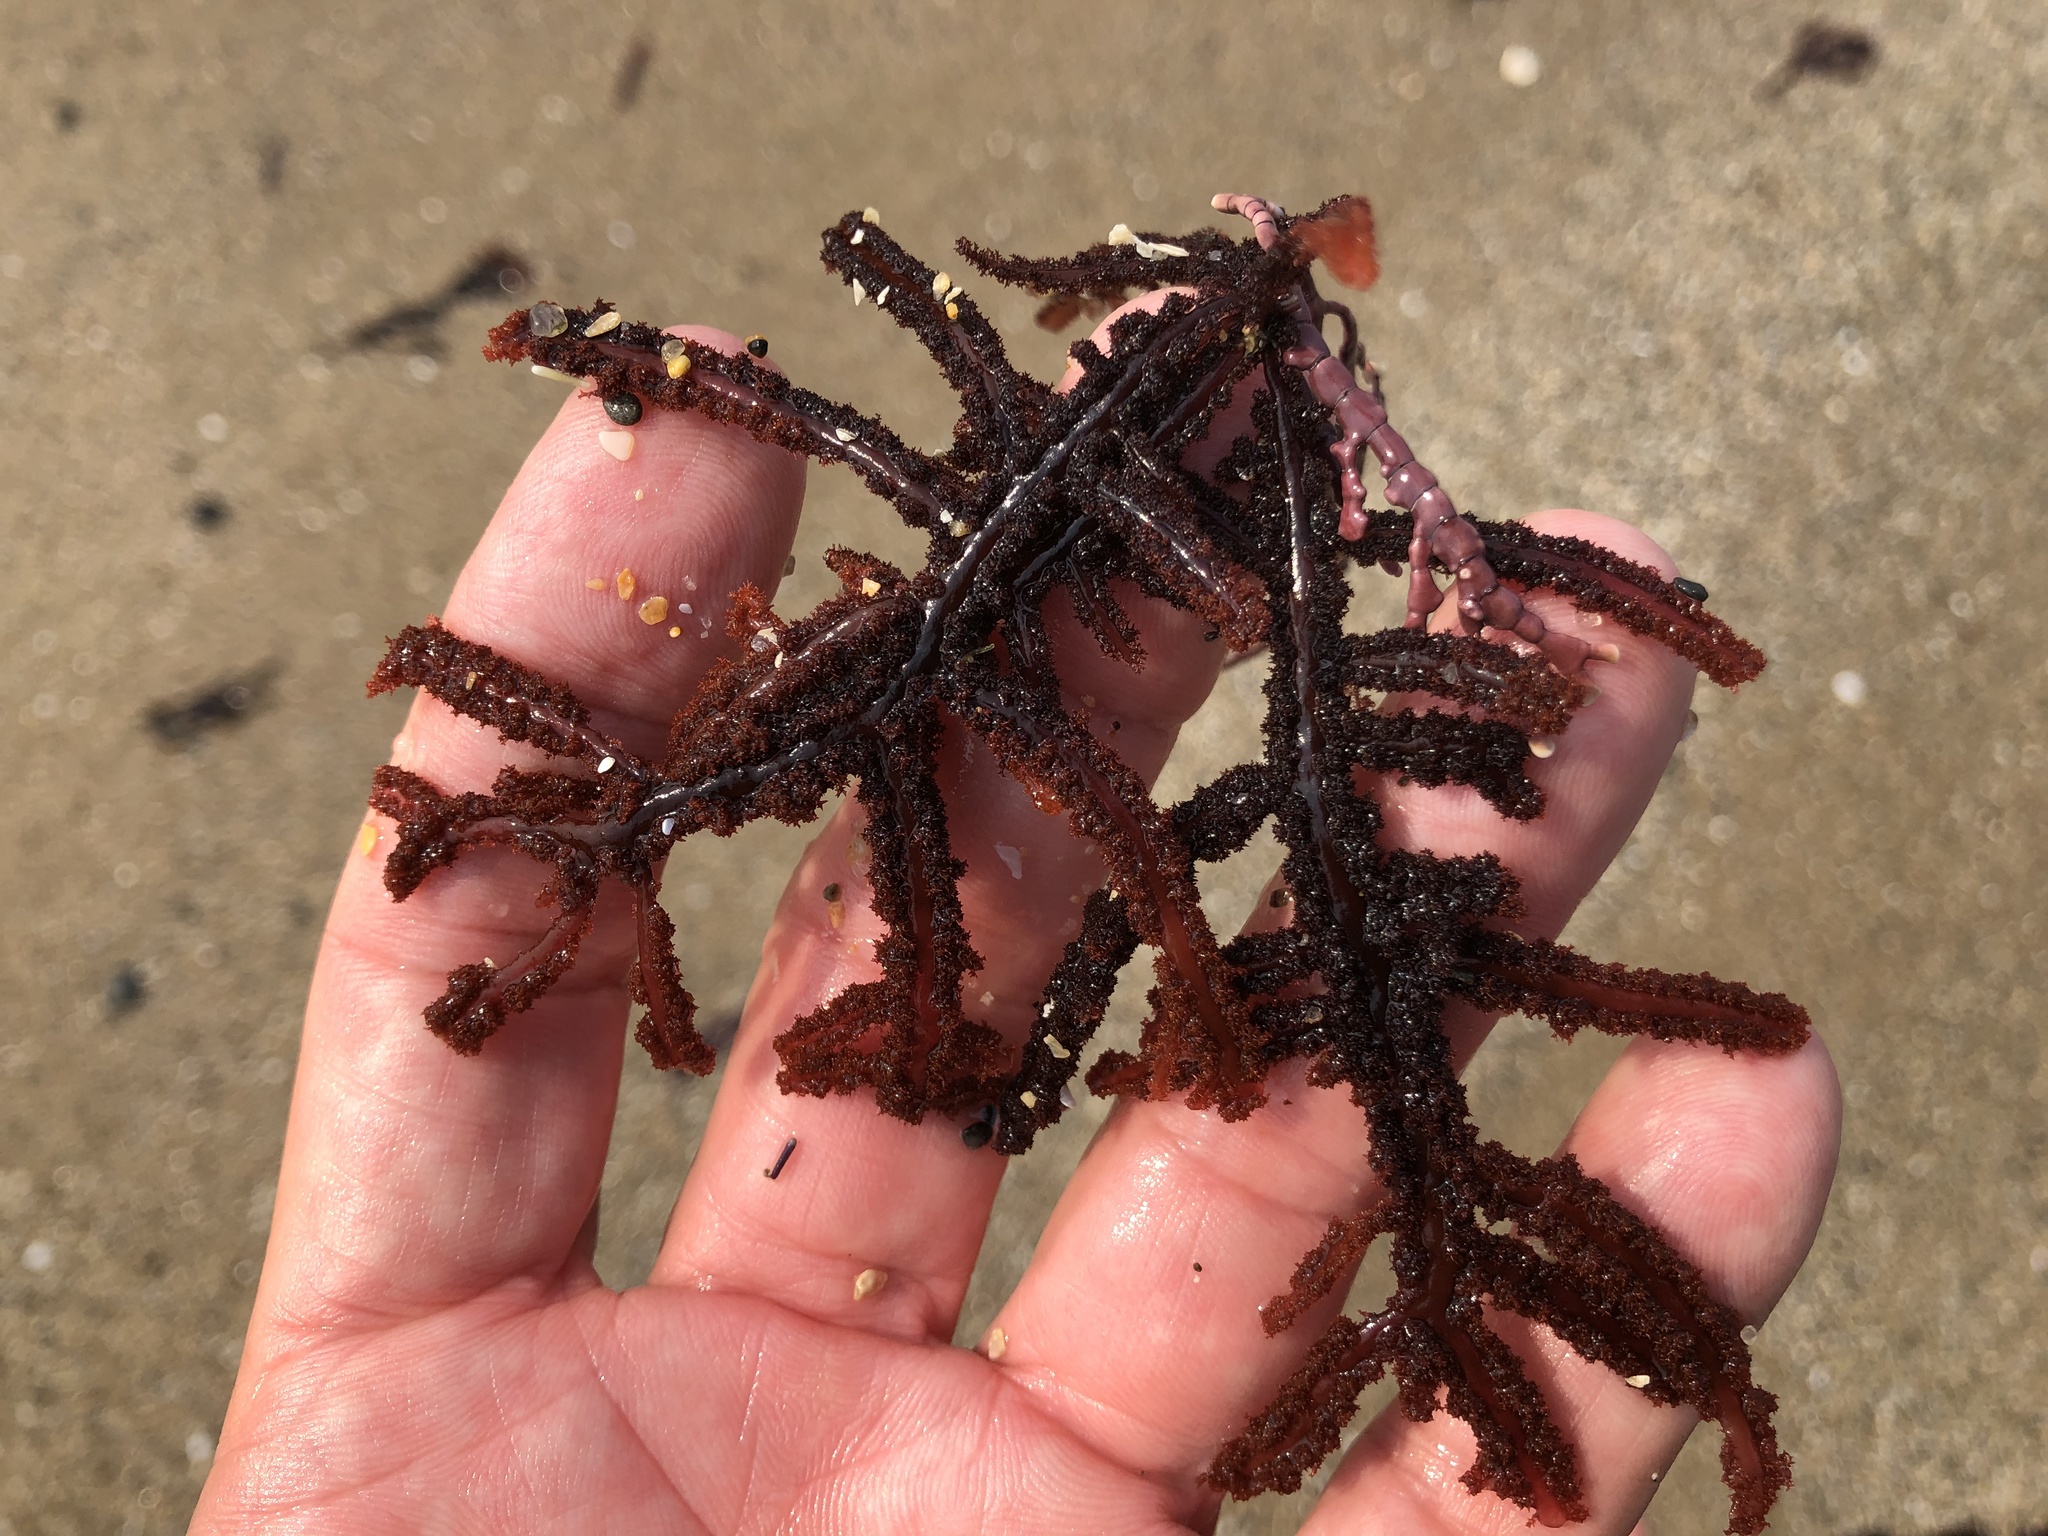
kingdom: Plantae
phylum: Rhodophyta
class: Florideophyceae
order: Ceramiales
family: Wrangeliaceae
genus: Neoptilota
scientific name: Neoptilota densa
